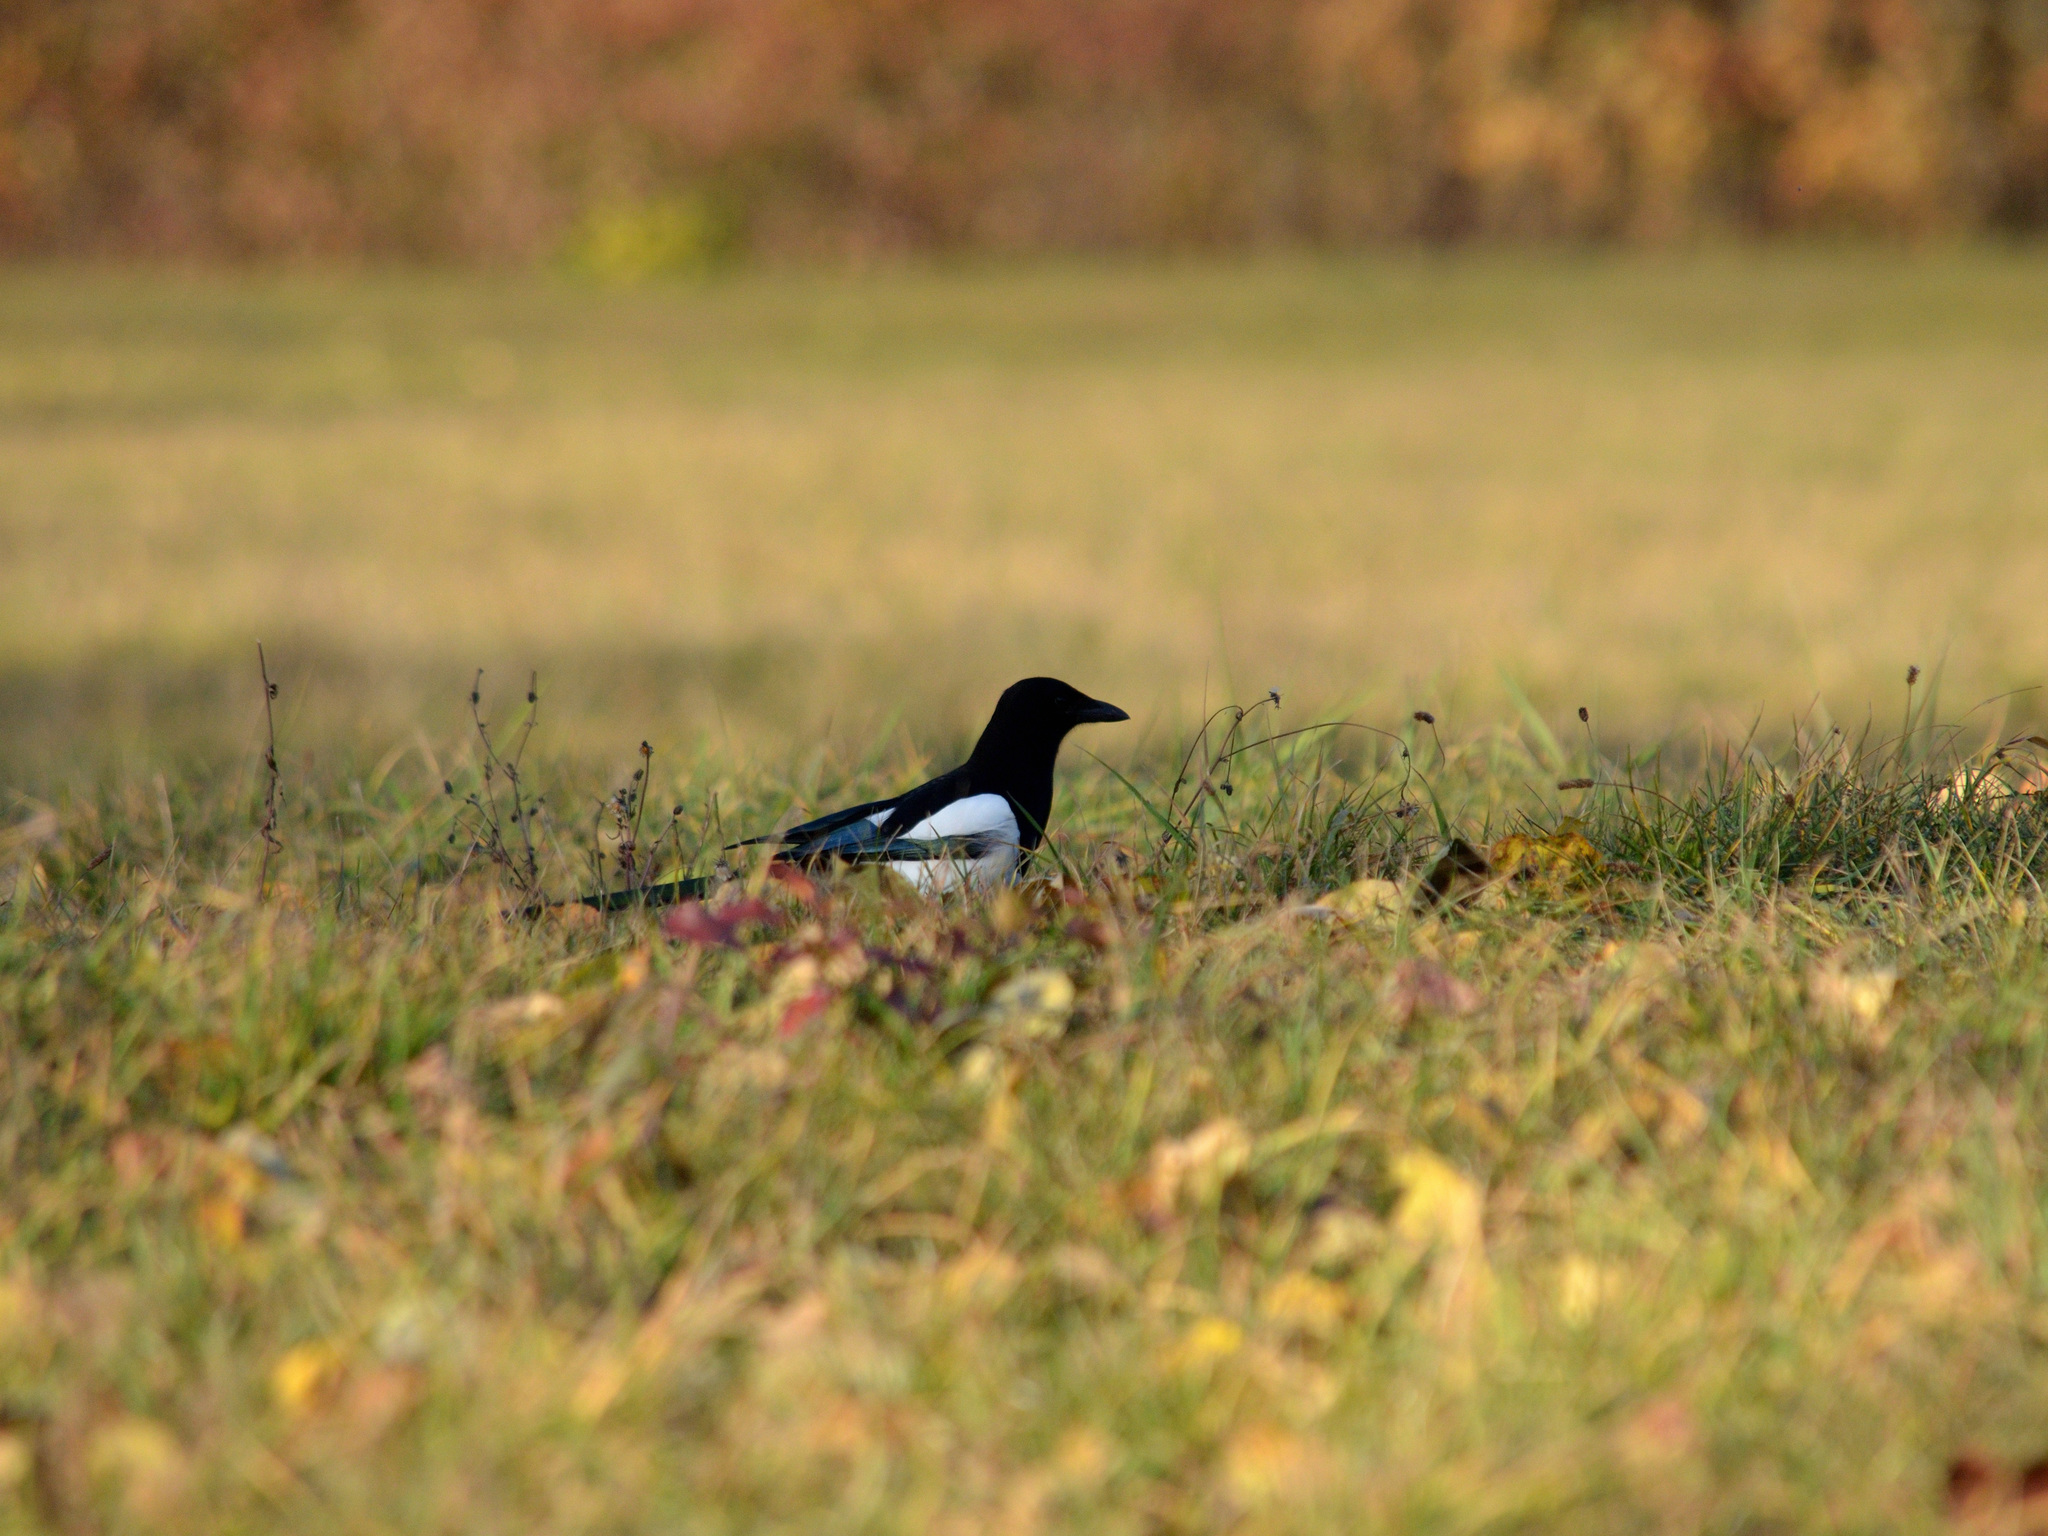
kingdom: Animalia
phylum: Chordata
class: Aves
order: Passeriformes
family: Corvidae
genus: Pica
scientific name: Pica pica
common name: Eurasian magpie
